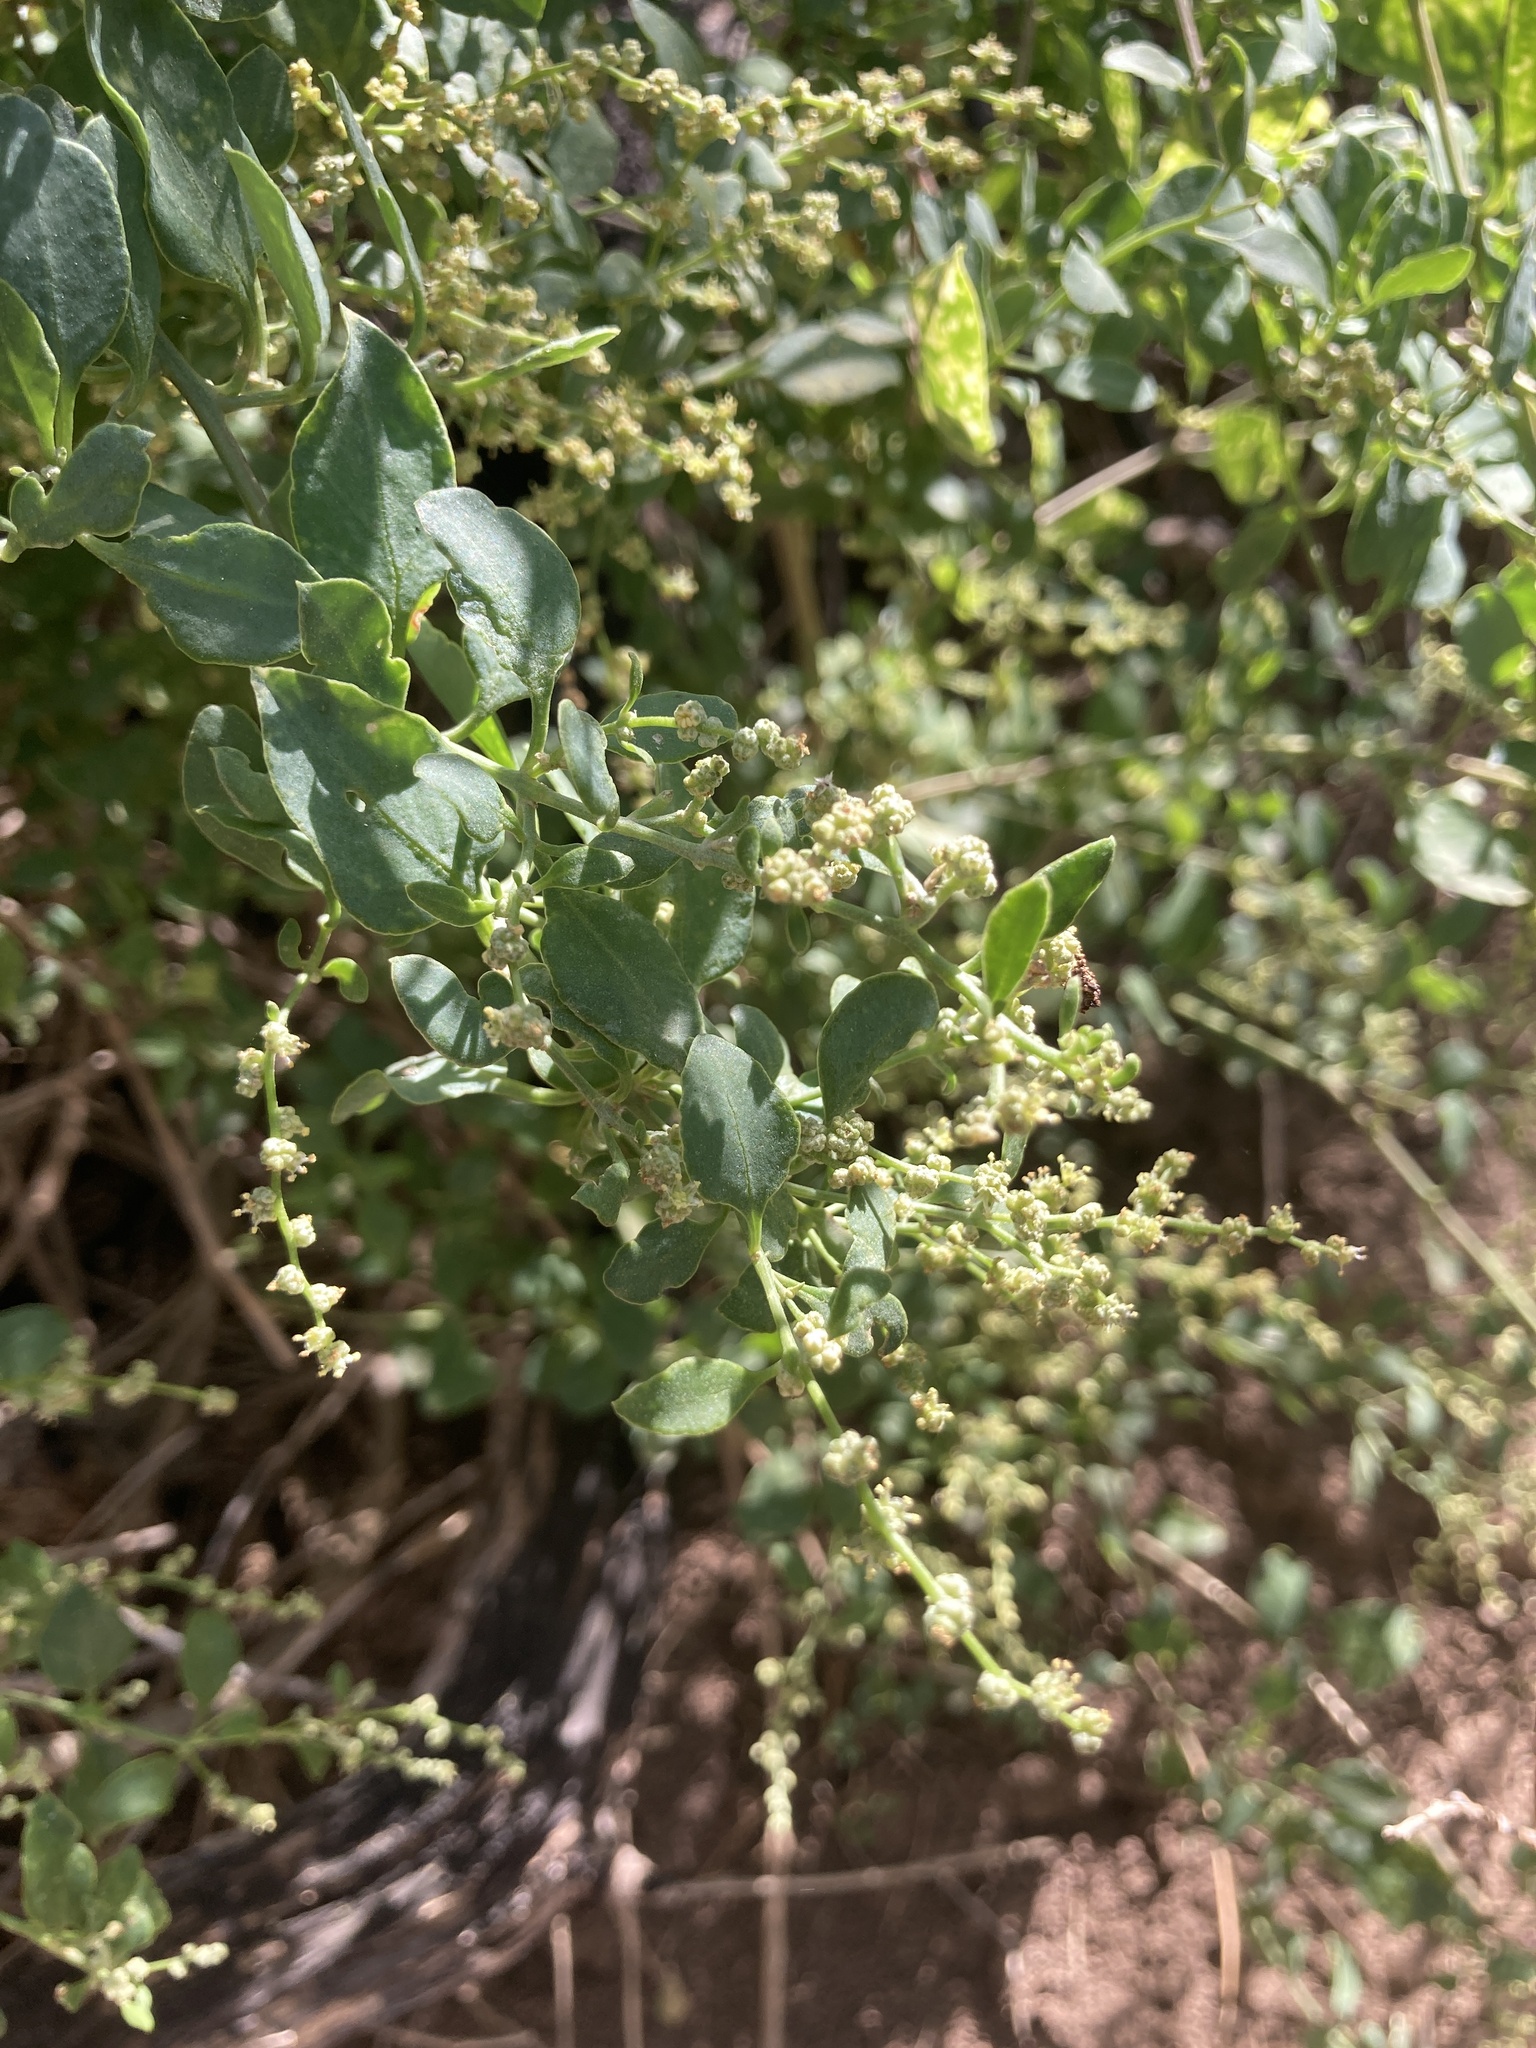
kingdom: Plantae
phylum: Tracheophyta
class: Magnoliopsida
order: Caryophyllales
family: Amaranthaceae
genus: Holmbergia
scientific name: Holmbergia tweedii
